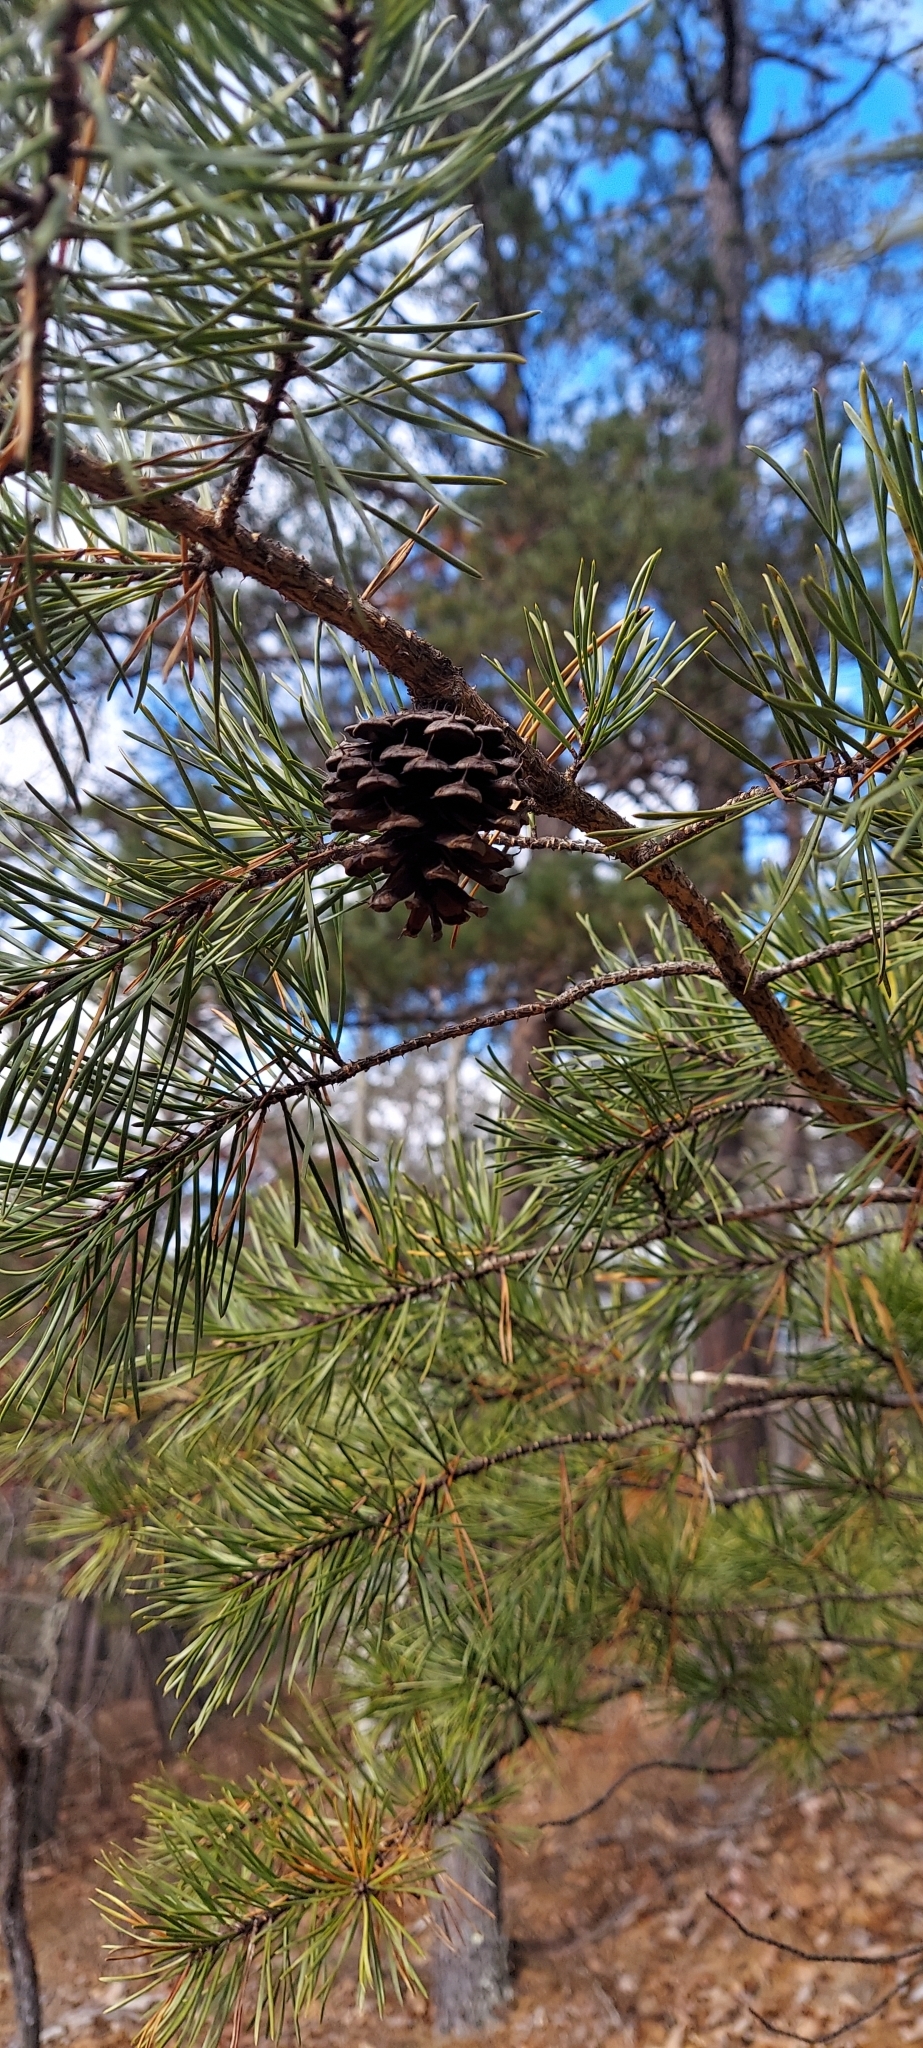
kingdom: Plantae
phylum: Tracheophyta
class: Pinopsida
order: Pinales
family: Pinaceae
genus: Pinus
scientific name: Pinus virginiana
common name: Scrub pine
